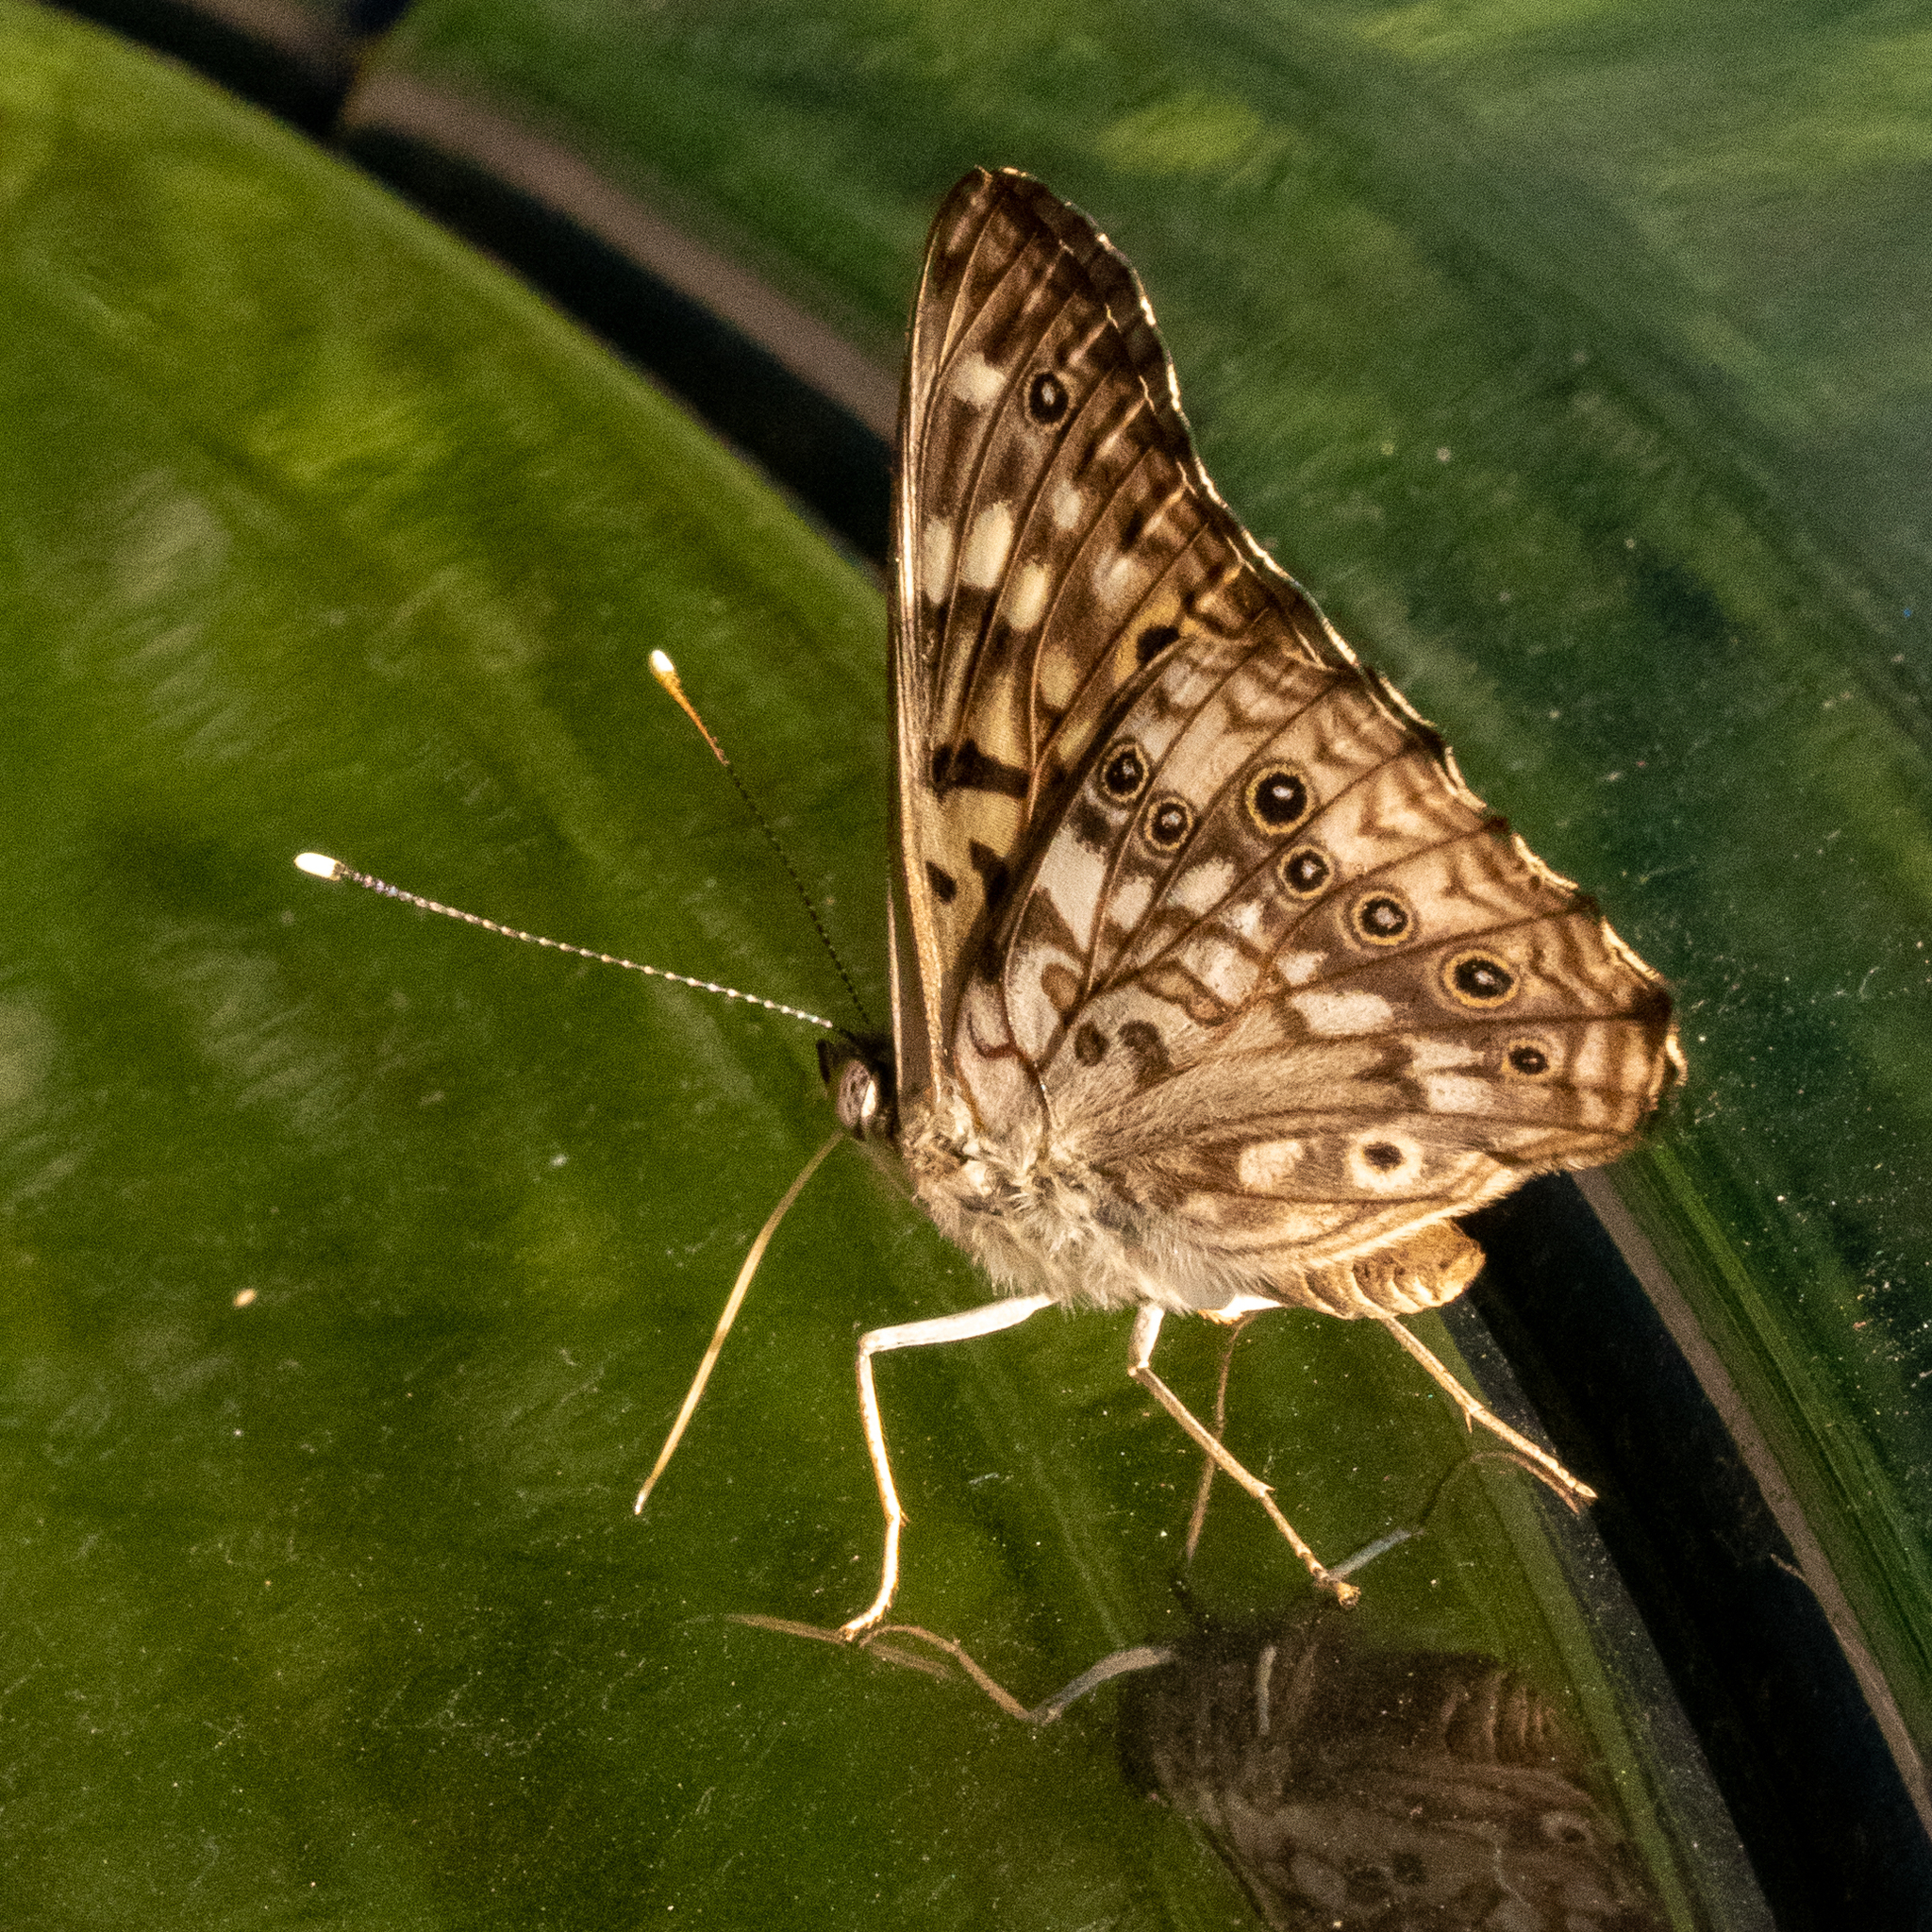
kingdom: Animalia
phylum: Arthropoda
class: Insecta
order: Lepidoptera
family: Nymphalidae
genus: Asterocampa
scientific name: Asterocampa celtis
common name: Hackberry emperor
